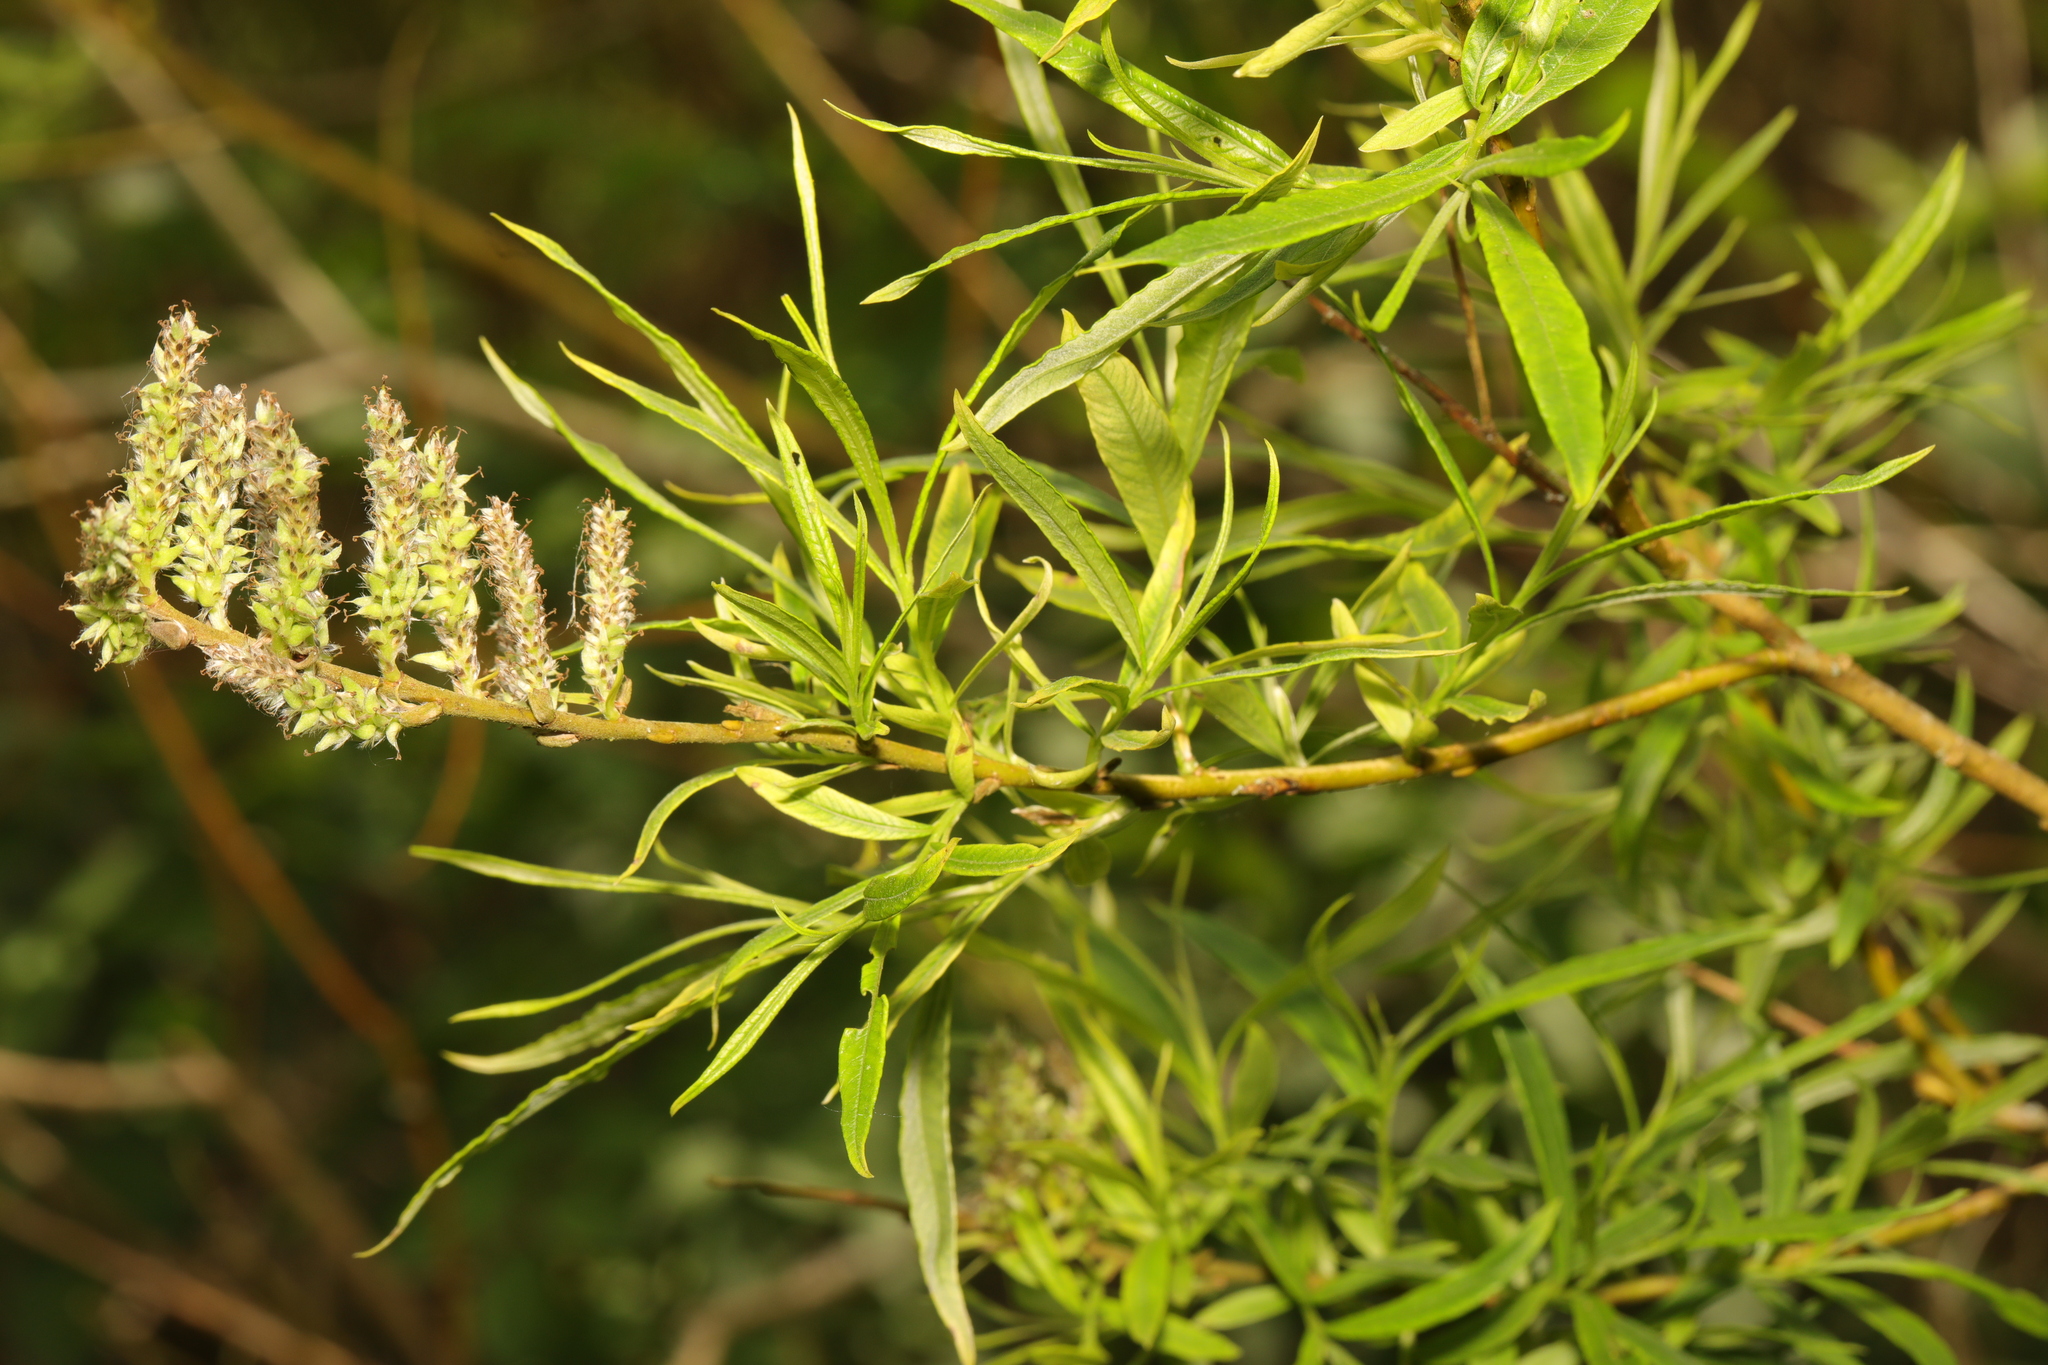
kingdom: Plantae
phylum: Tracheophyta
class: Magnoliopsida
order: Malpighiales
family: Salicaceae
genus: Salix
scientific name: Salix viminalis
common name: Osier
